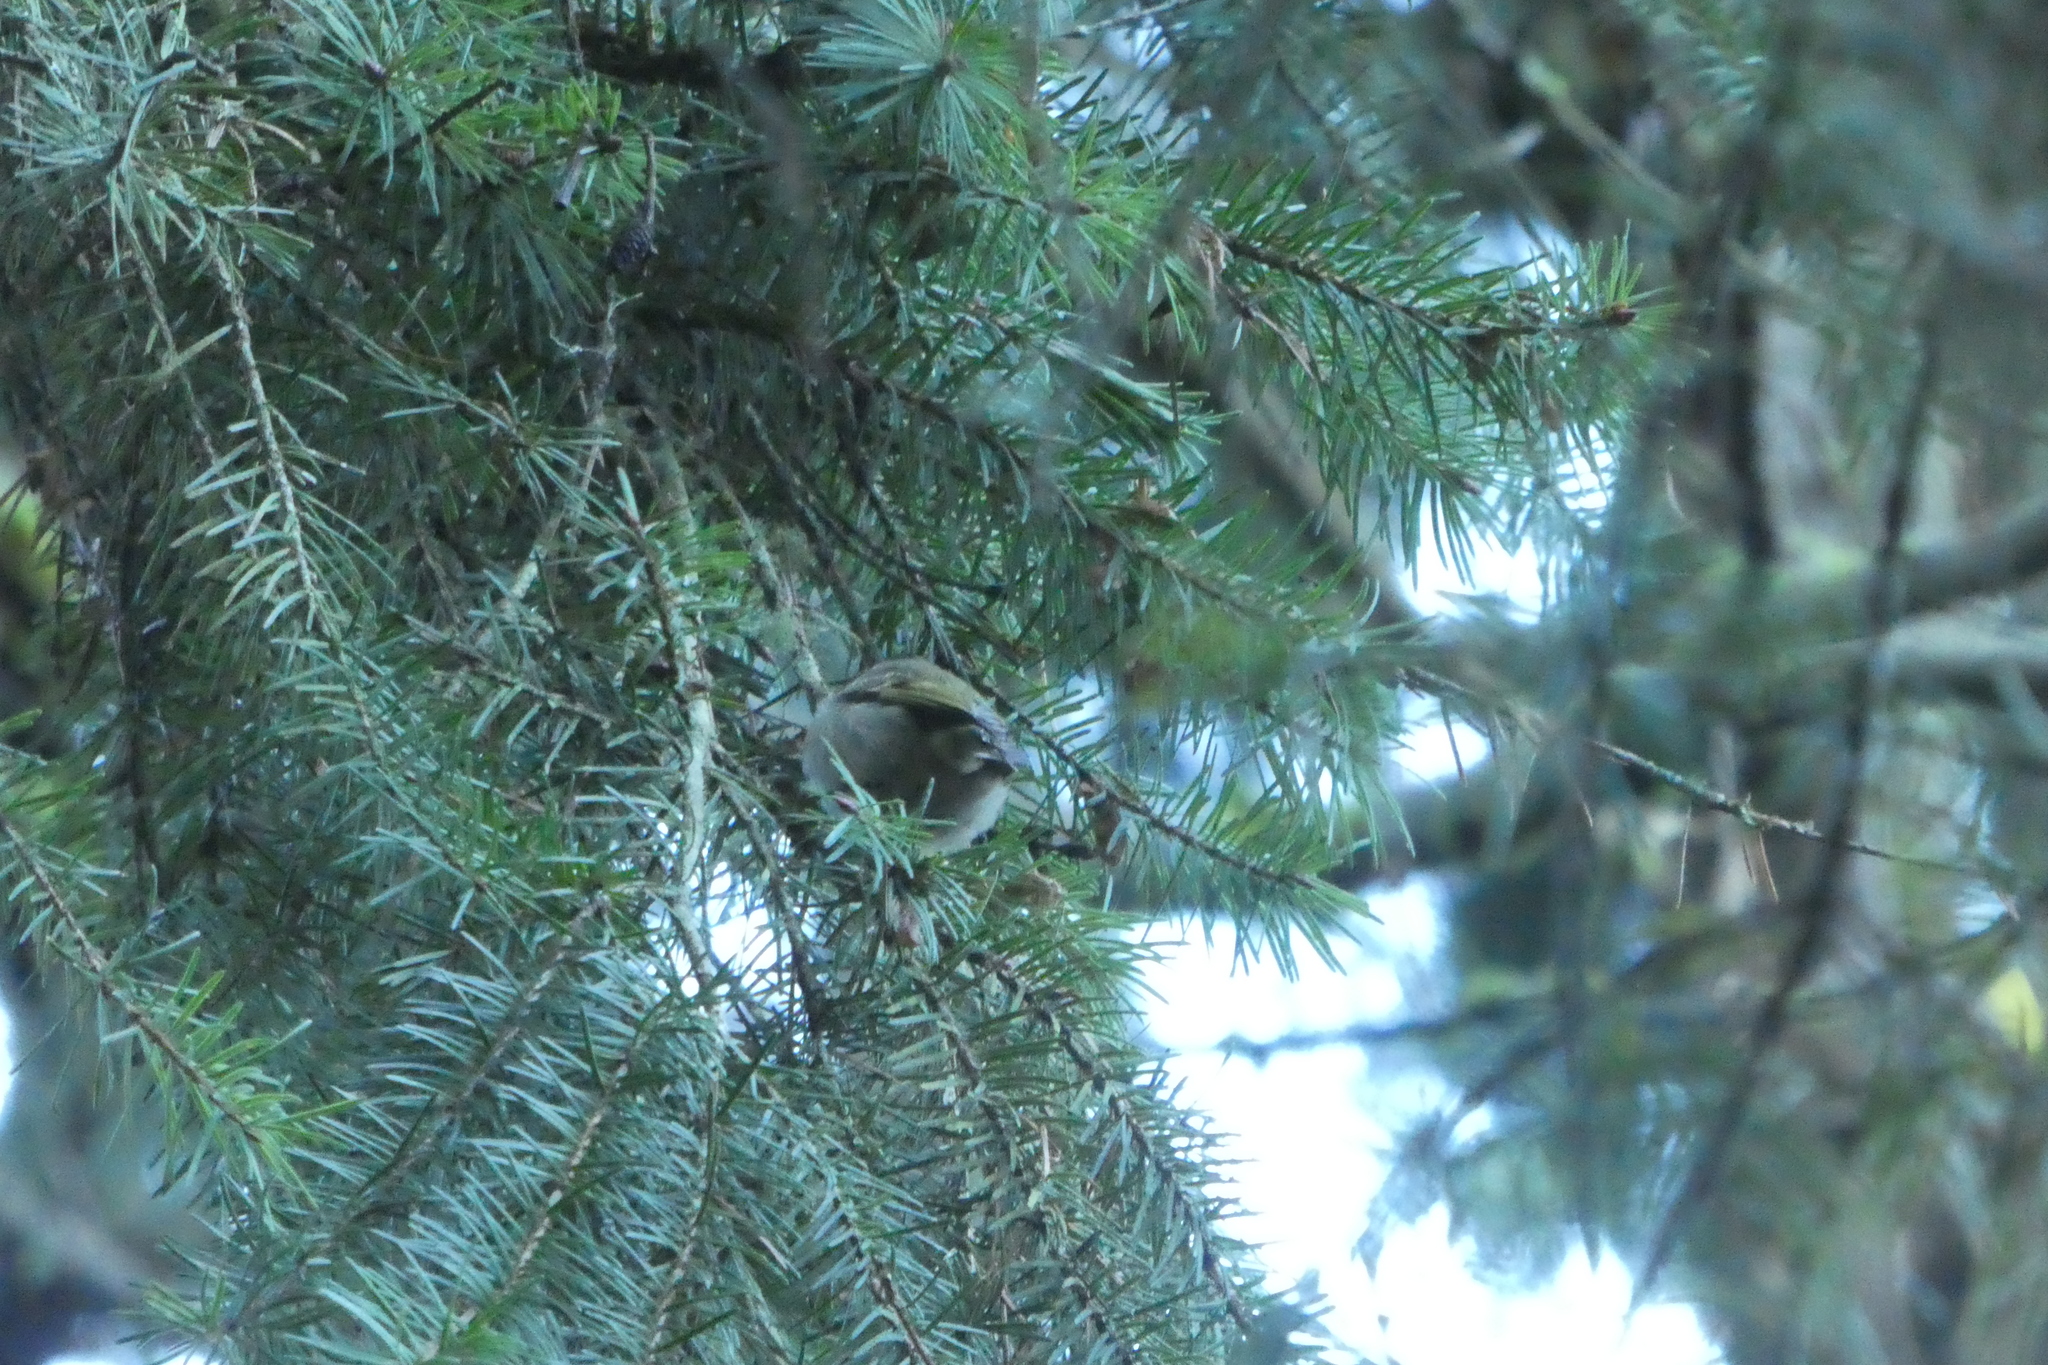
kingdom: Animalia
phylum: Chordata
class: Aves
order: Passeriformes
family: Regulidae
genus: Regulus
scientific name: Regulus satrapa
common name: Golden-crowned kinglet
